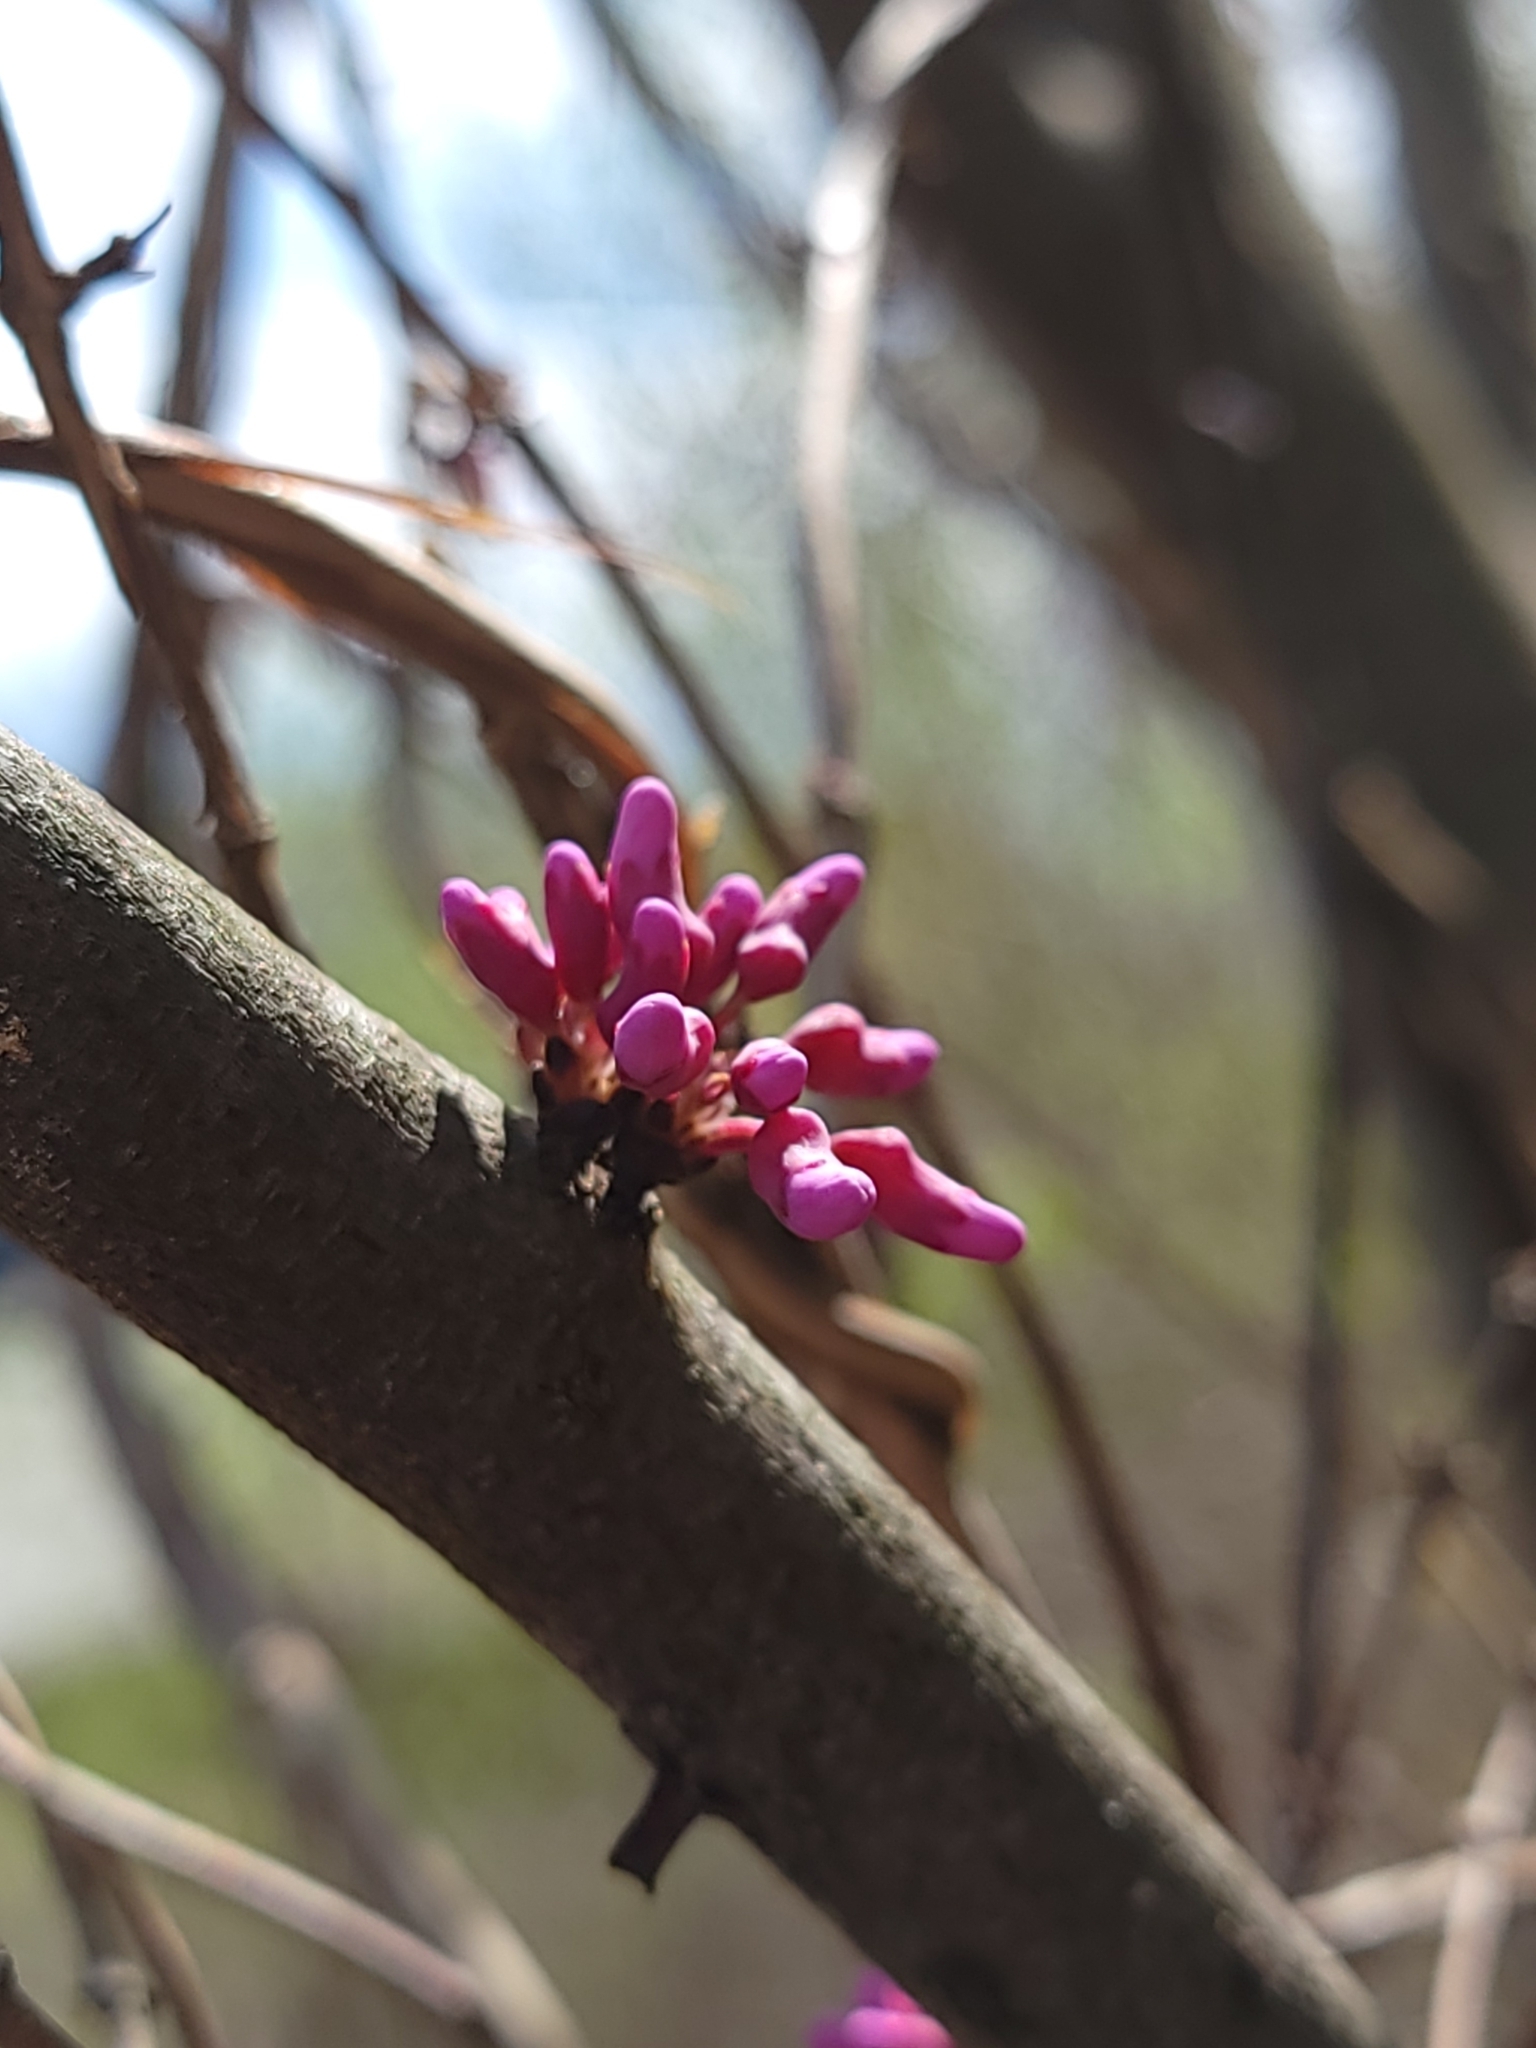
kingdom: Plantae
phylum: Tracheophyta
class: Magnoliopsida
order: Fabales
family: Fabaceae
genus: Cercis
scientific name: Cercis canadensis
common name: Eastern redbud
